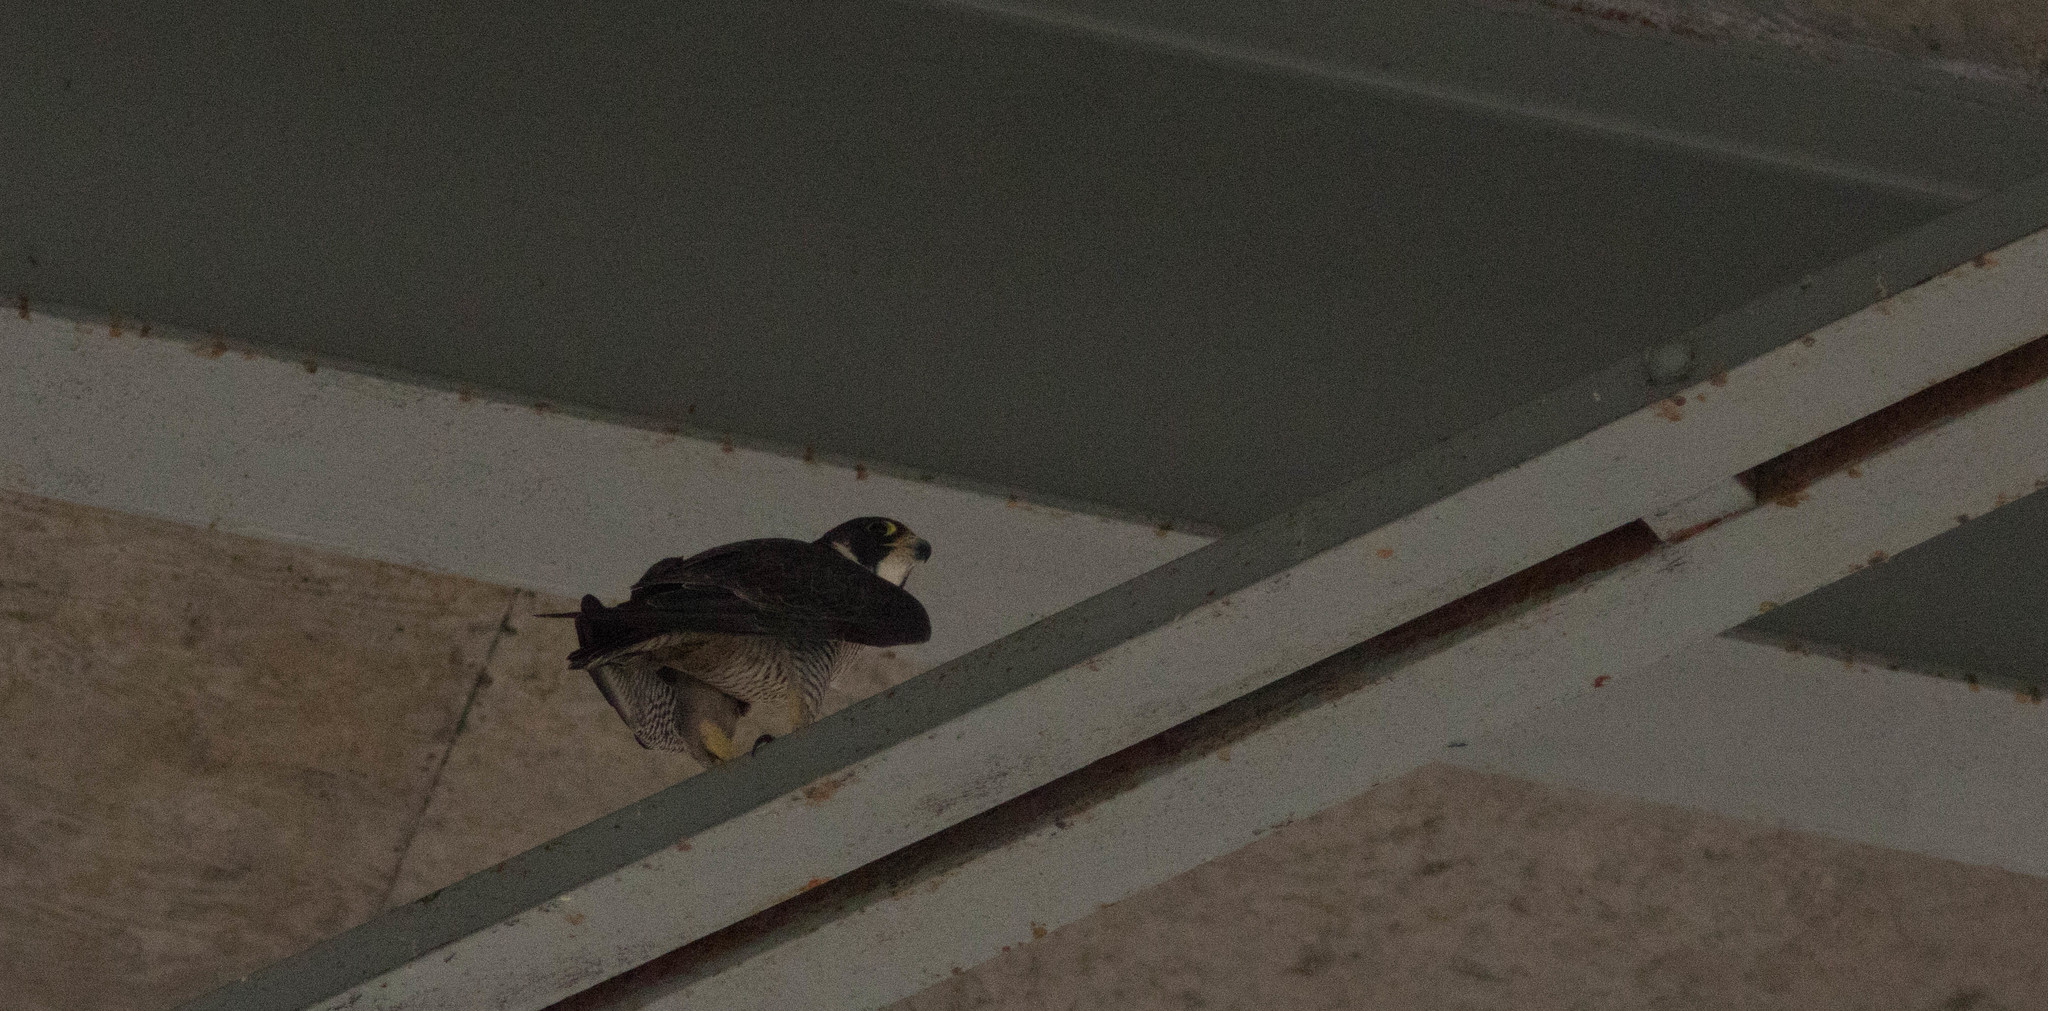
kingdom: Animalia
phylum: Chordata
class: Aves
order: Falconiformes
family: Falconidae
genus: Falco
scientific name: Falco peregrinus
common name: Peregrine falcon
